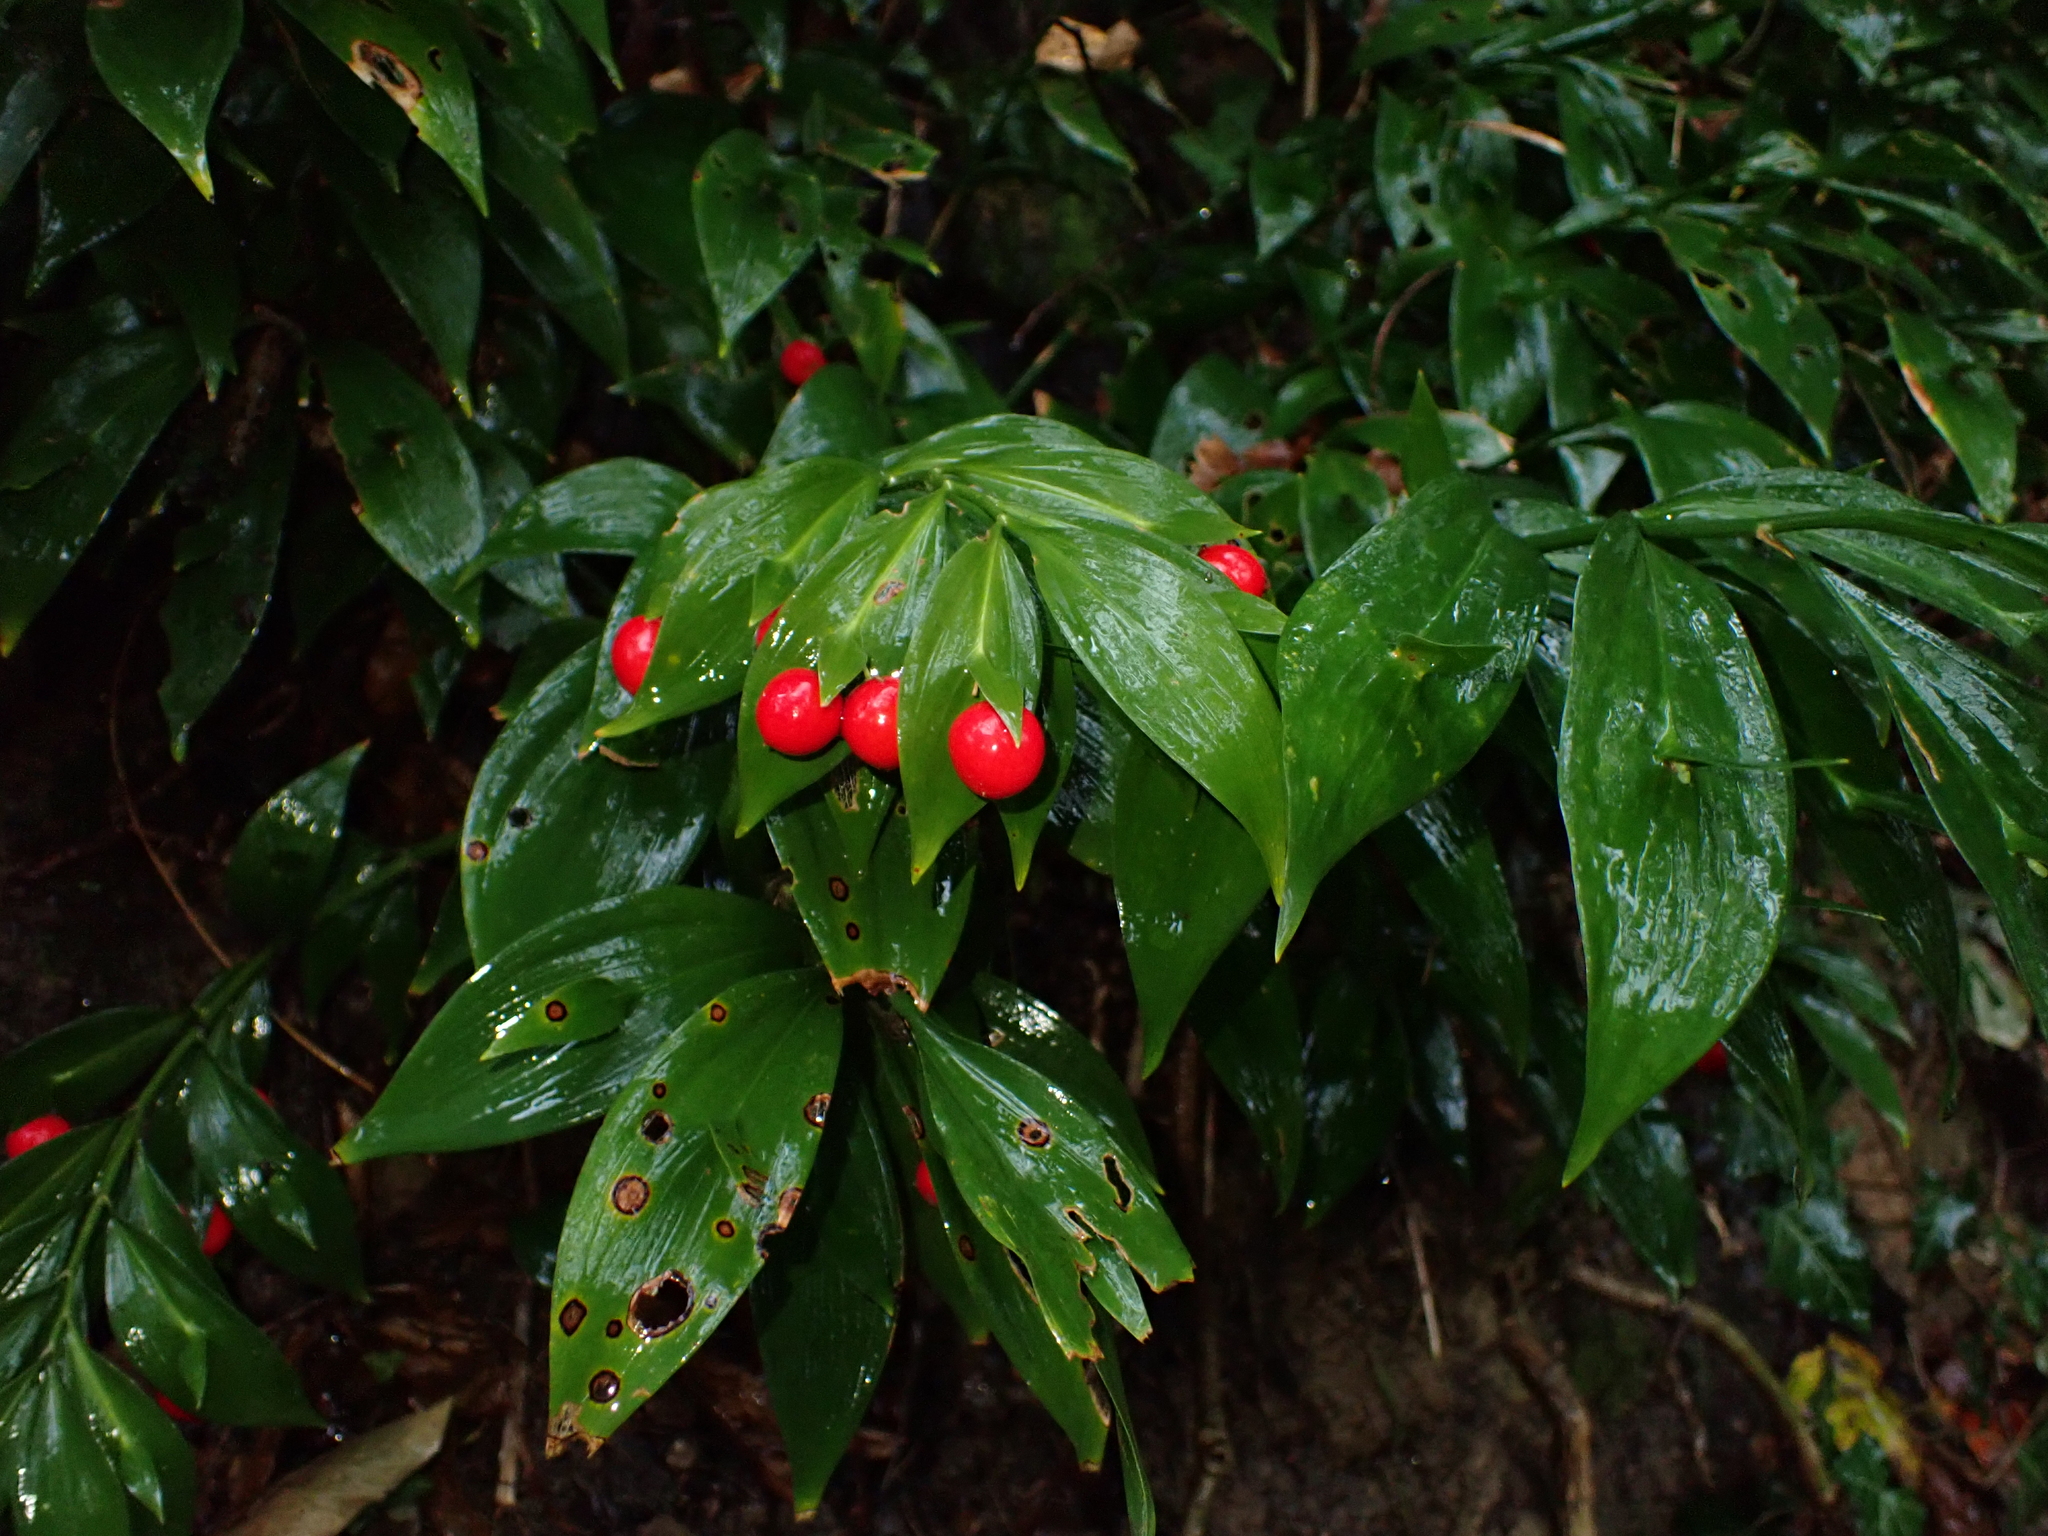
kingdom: Plantae
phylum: Tracheophyta
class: Liliopsida
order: Asparagales
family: Asparagaceae
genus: Ruscus
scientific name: Ruscus hypoglossum
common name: Spineless butcher's-broom
